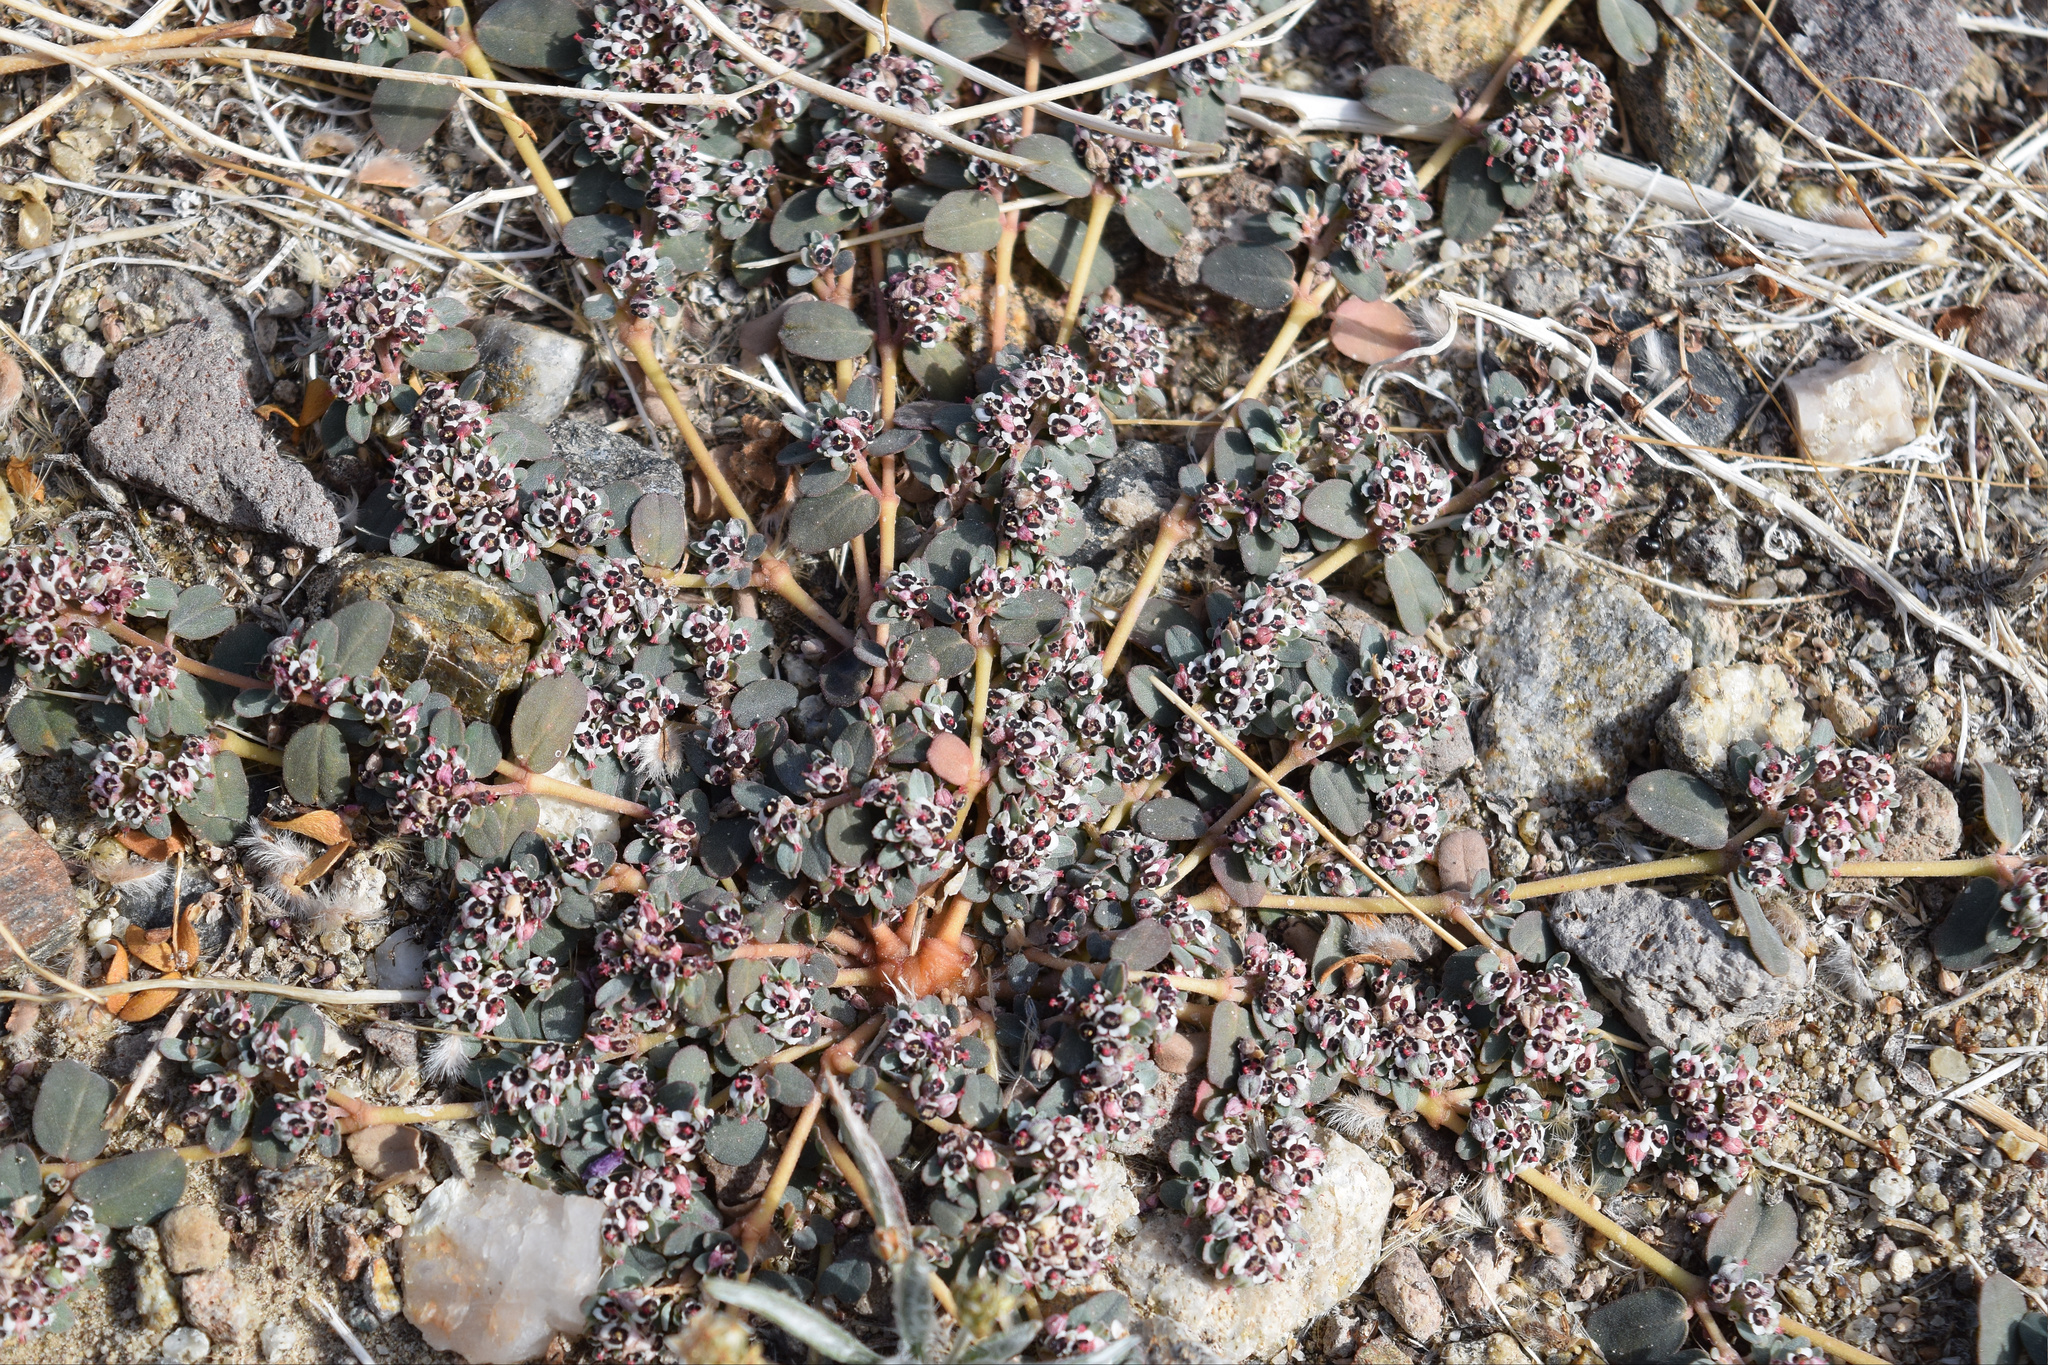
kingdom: Plantae
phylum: Tracheophyta
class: Magnoliopsida
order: Malpighiales
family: Euphorbiaceae
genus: Euphorbia
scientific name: Euphorbia pediculifera
